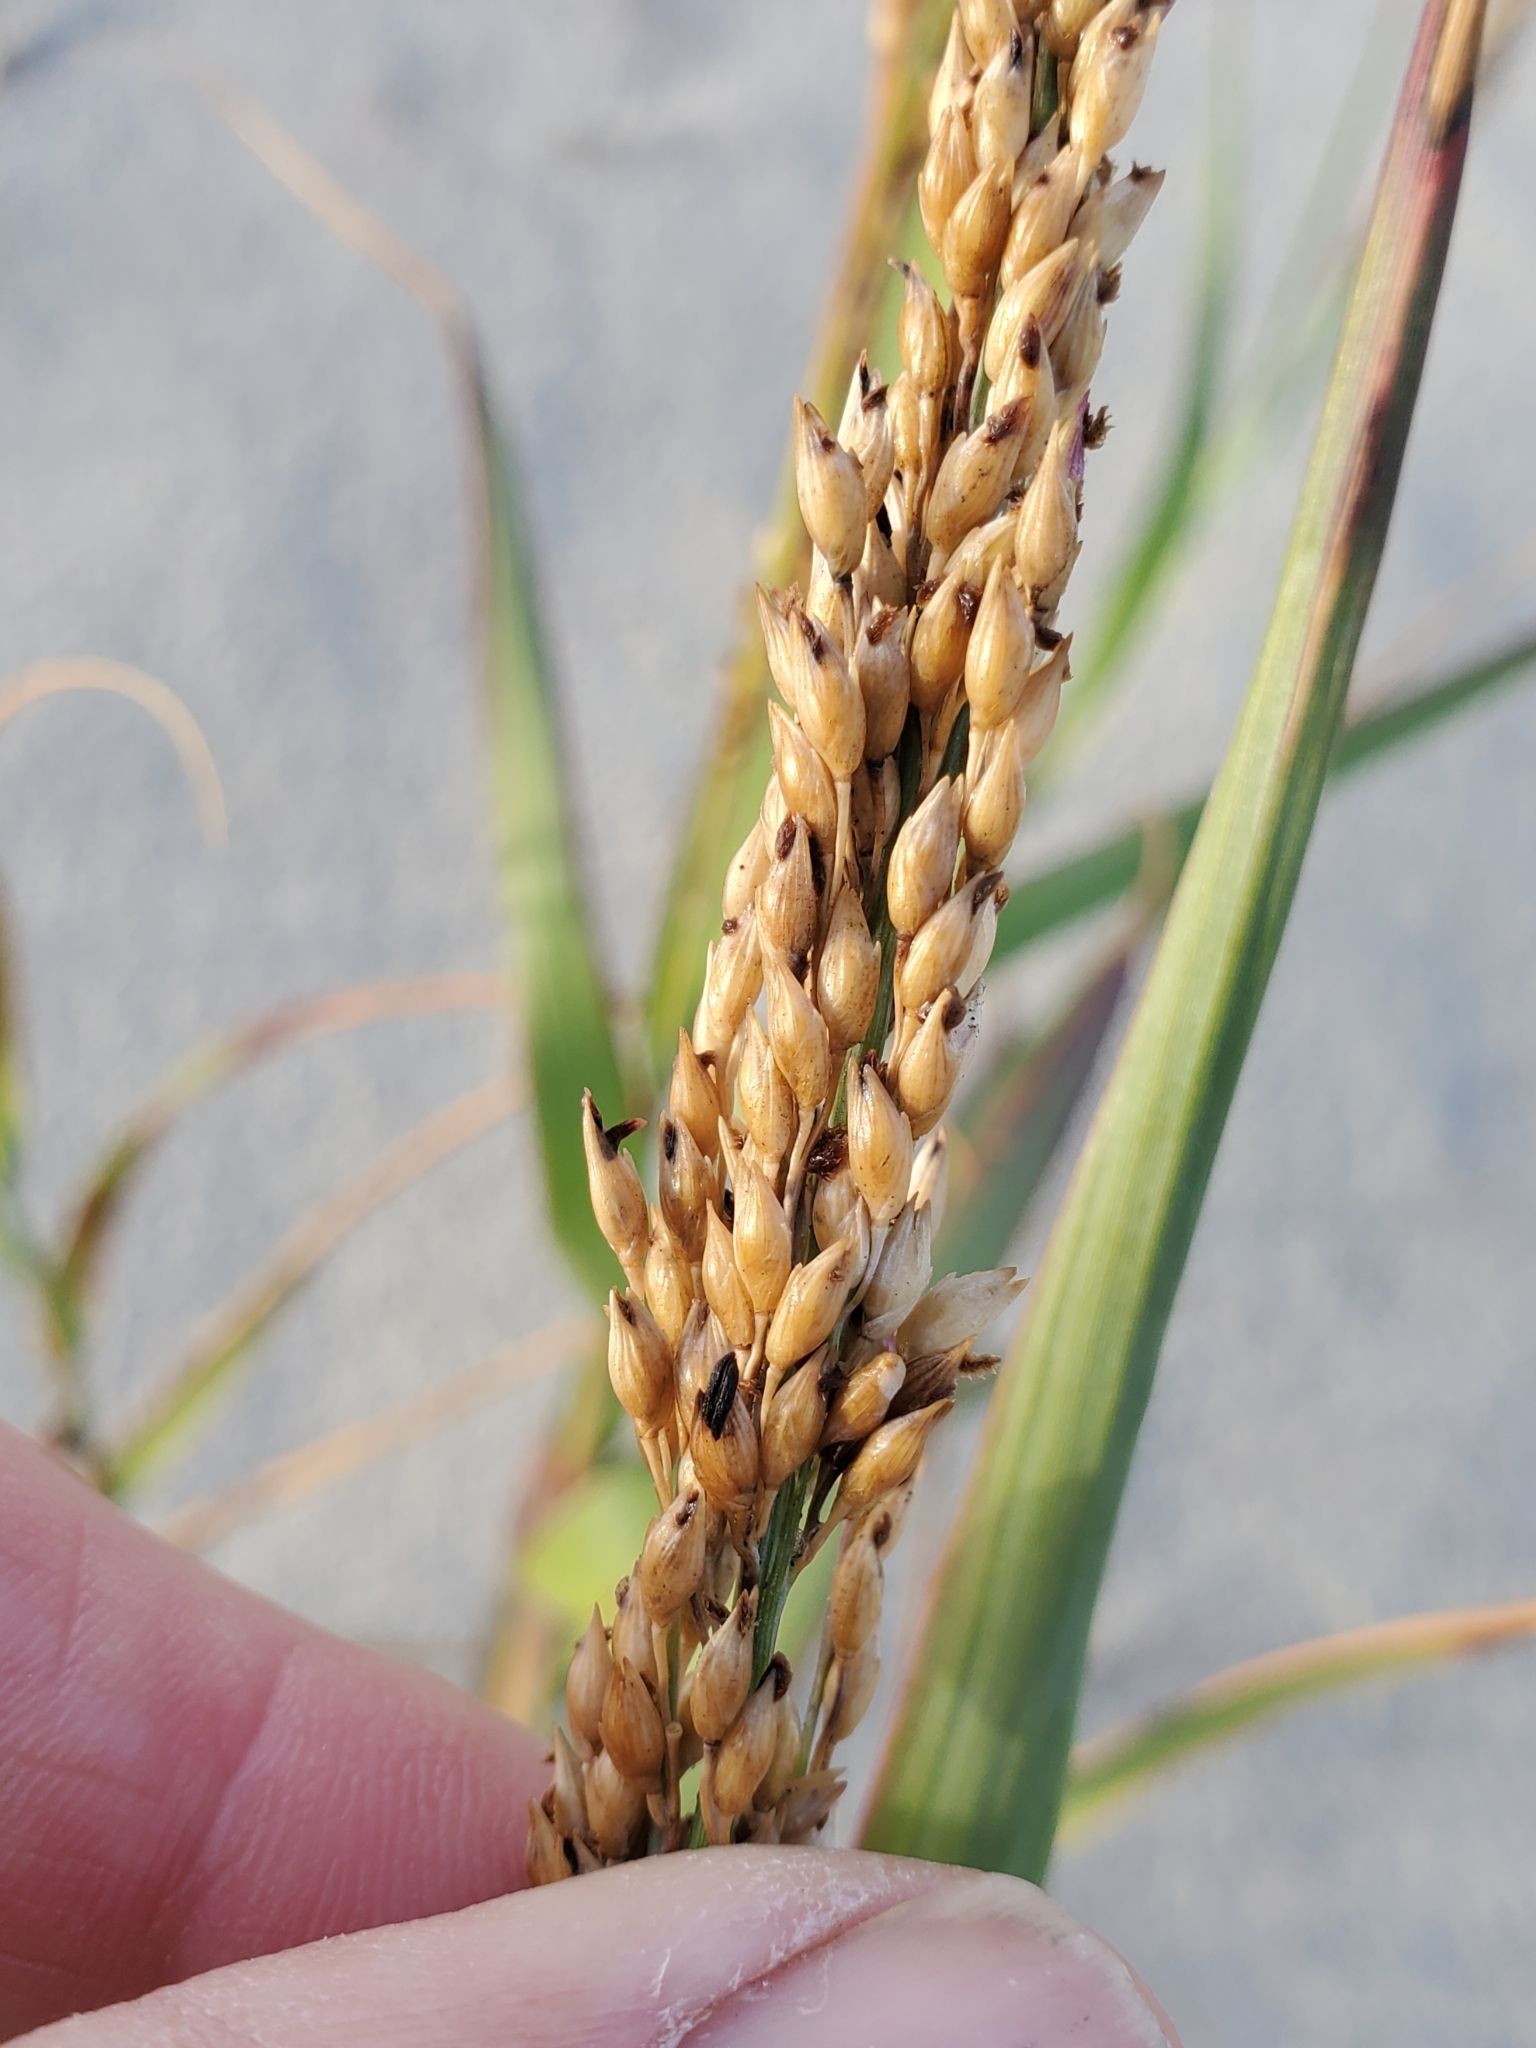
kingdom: Plantae
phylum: Tracheophyta
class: Liliopsida
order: Poales
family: Poaceae
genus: Panicum
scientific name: Panicum amarum
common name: Bitter panicum
